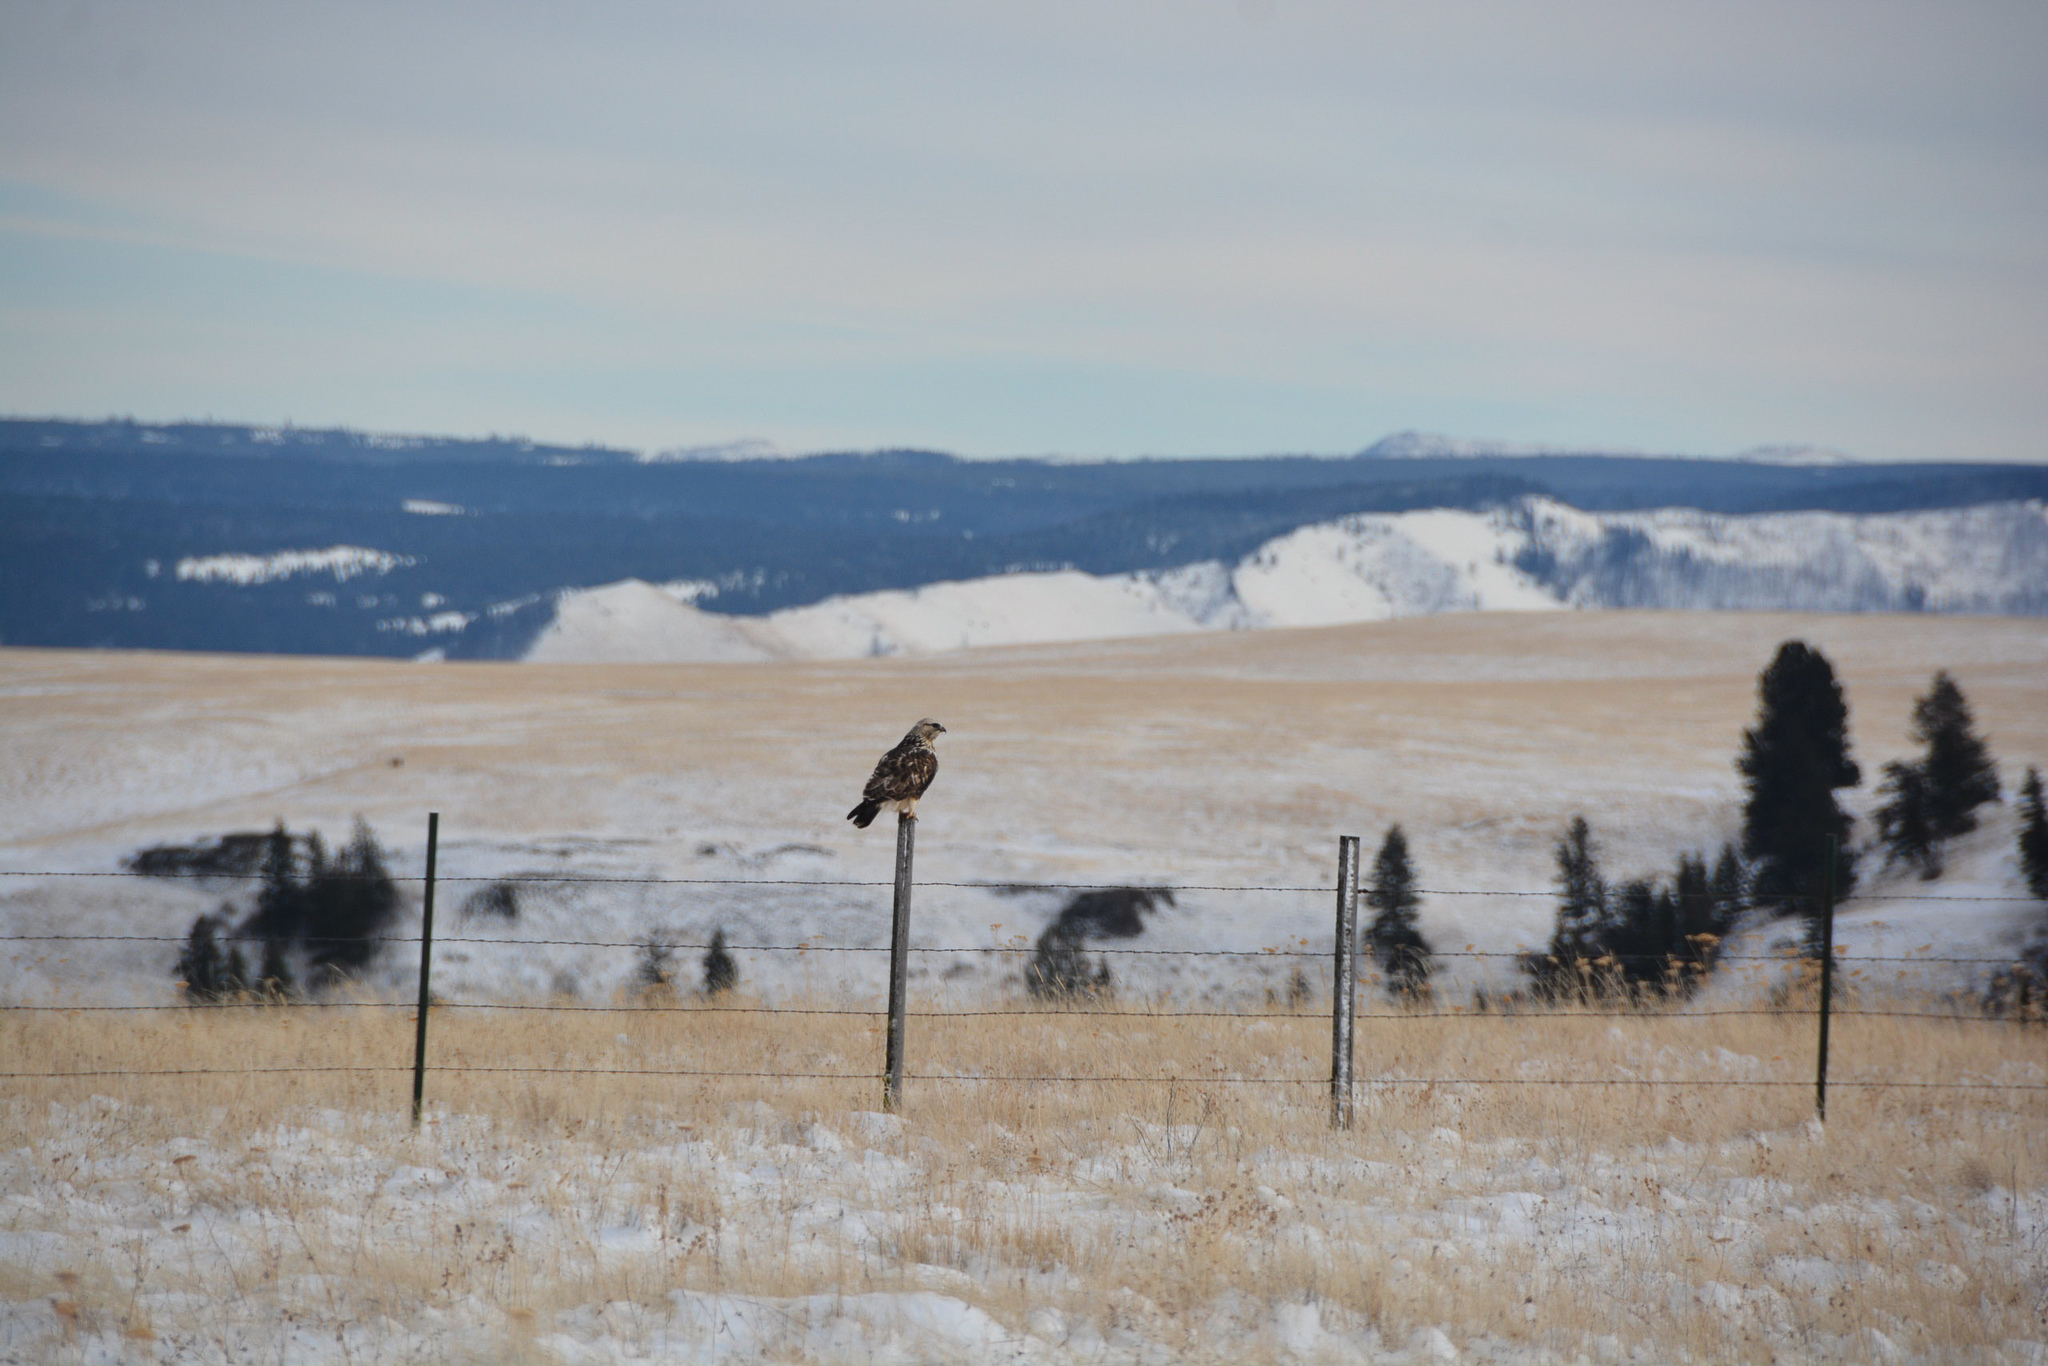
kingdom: Animalia
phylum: Chordata
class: Aves
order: Accipitriformes
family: Accipitridae
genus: Buteo
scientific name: Buteo lagopus
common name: Rough-legged buzzard
